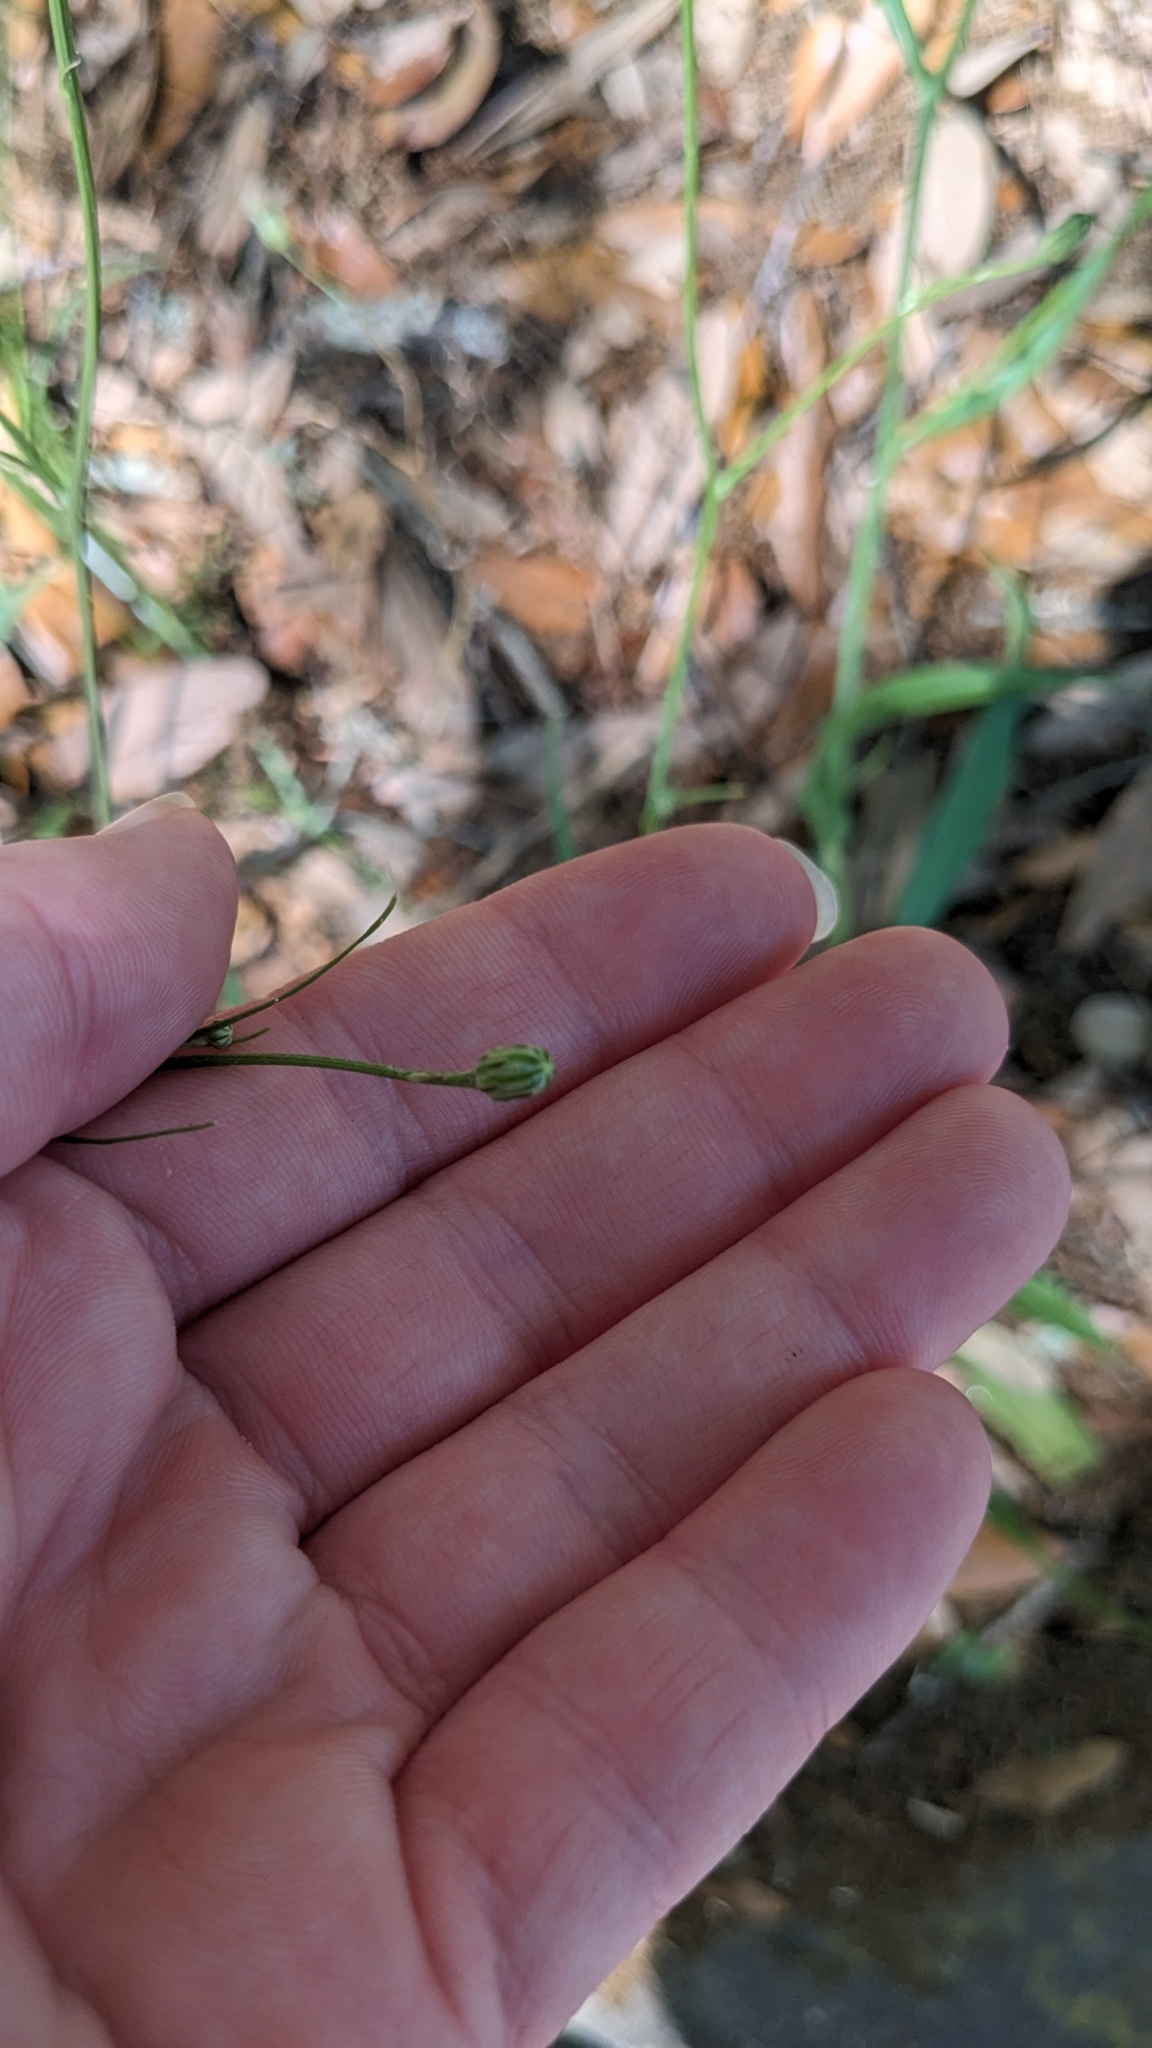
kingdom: Plantae
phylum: Tracheophyta
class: Magnoliopsida
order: Asterales
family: Asteraceae
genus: Hypochaeris
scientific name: Hypochaeris albiflora
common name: White flatweed
